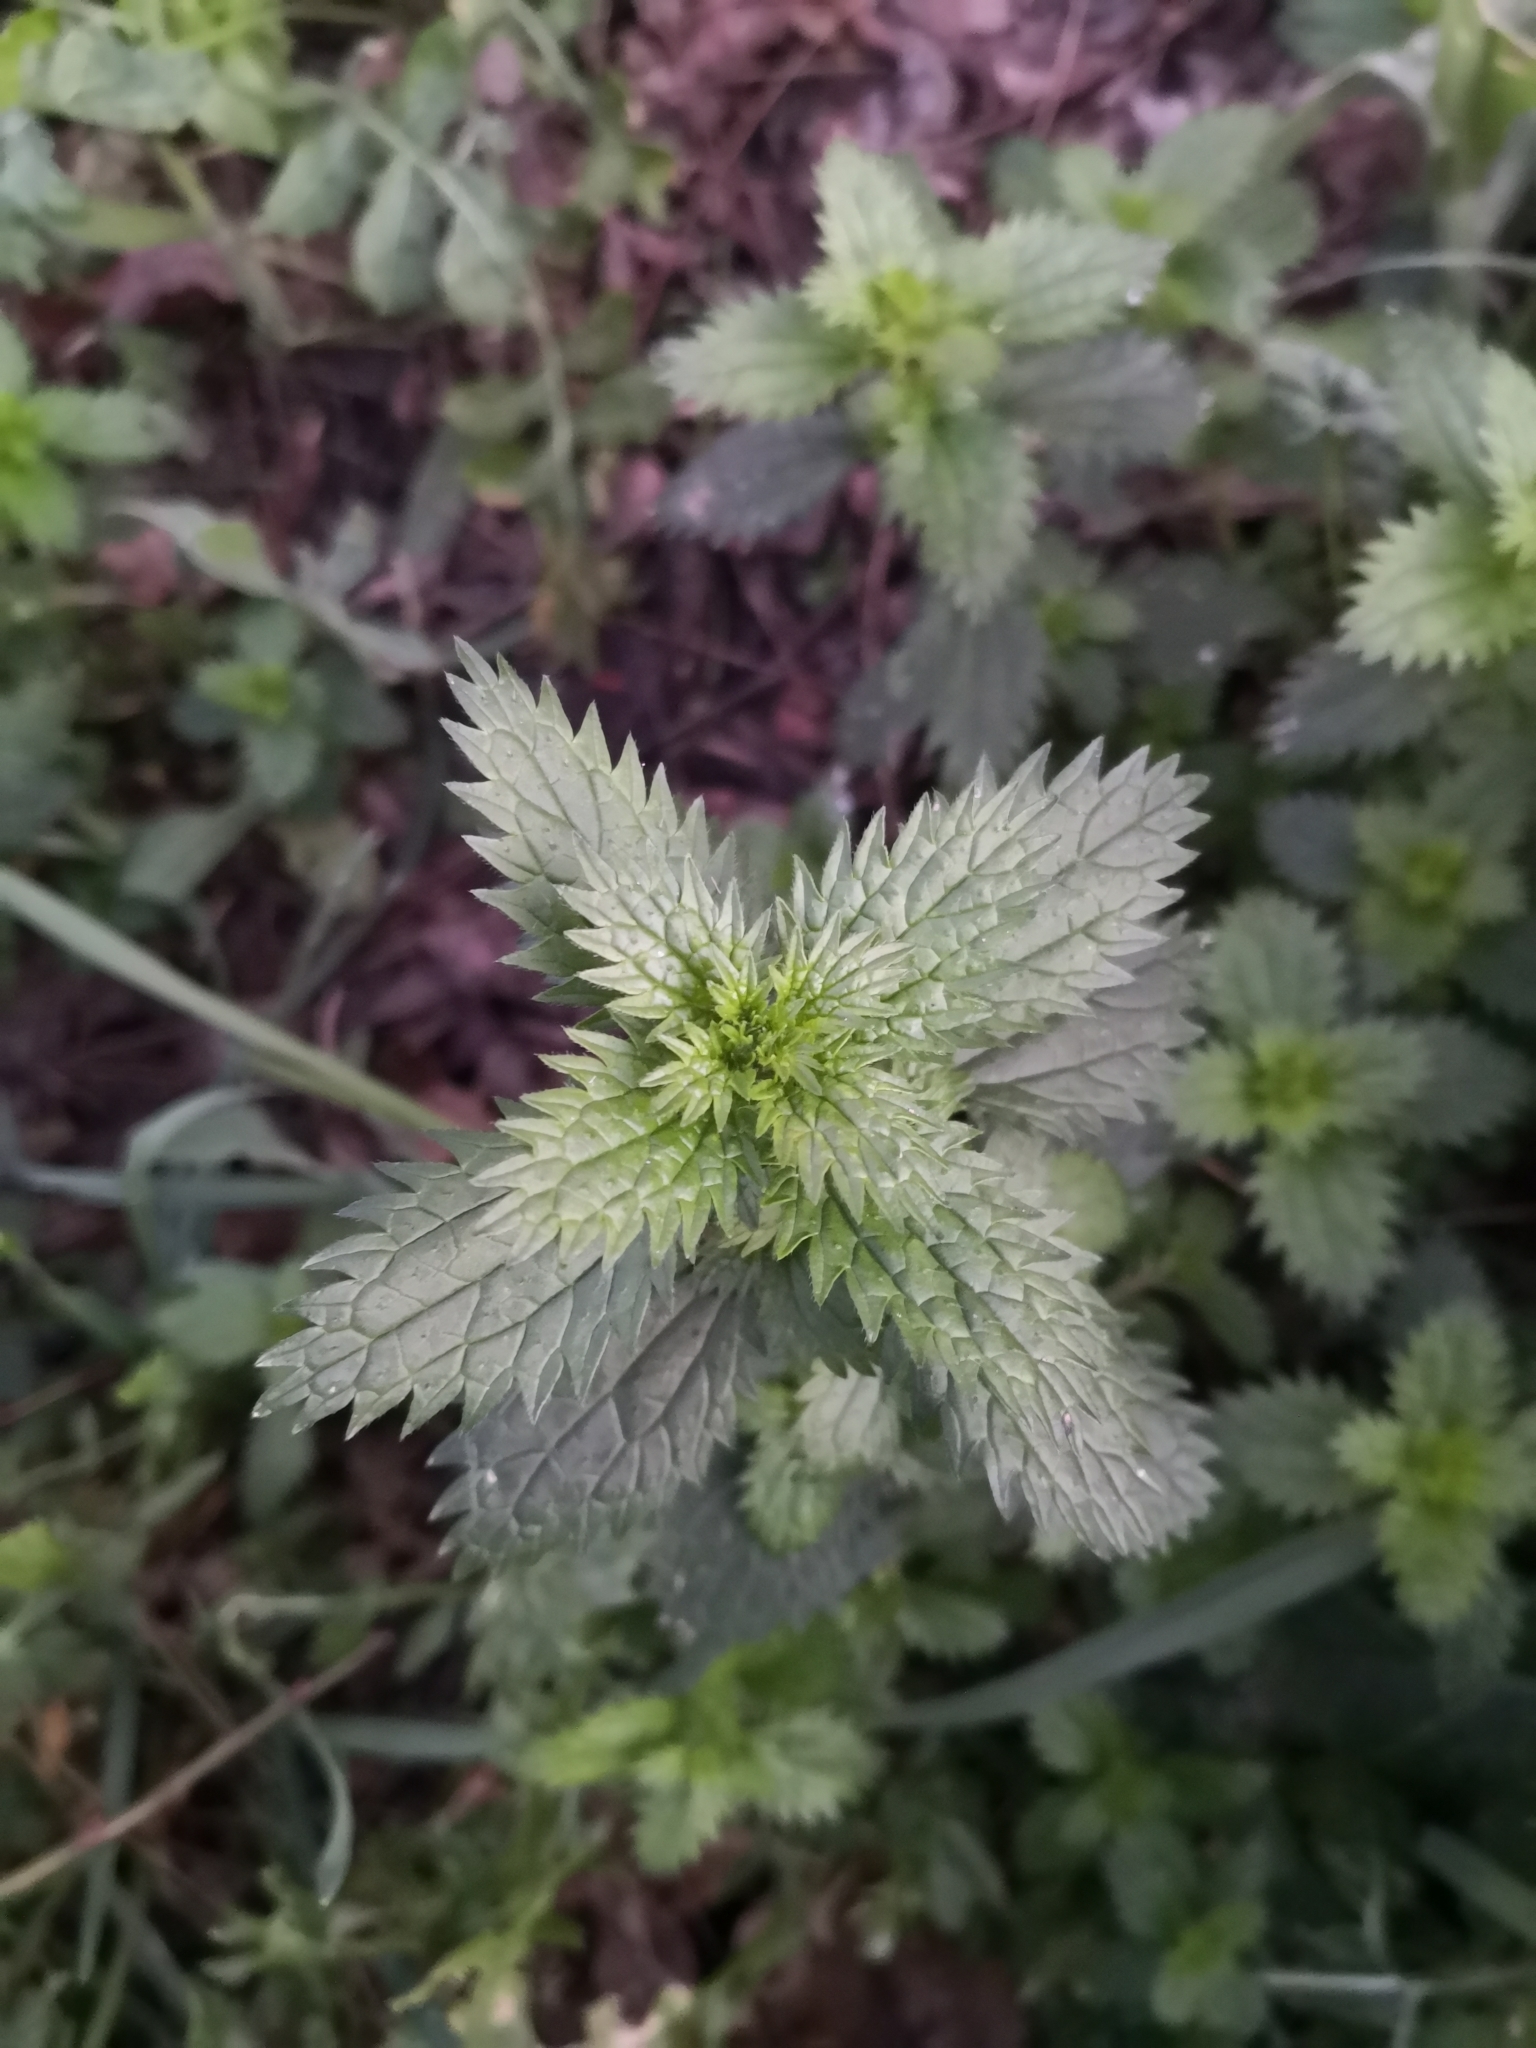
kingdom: Plantae
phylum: Tracheophyta
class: Magnoliopsida
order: Rosales
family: Urticaceae
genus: Urtica
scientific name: Urtica urens
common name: Dwarf nettle
